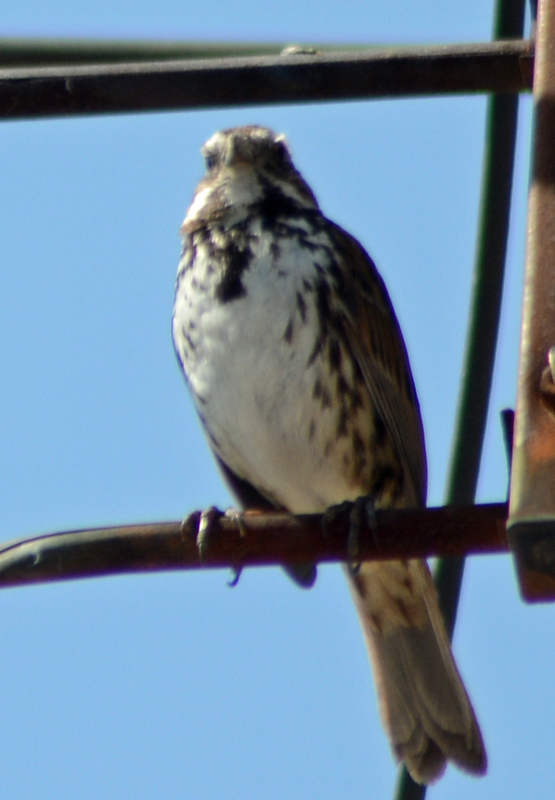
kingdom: Animalia
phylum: Chordata
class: Aves
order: Passeriformes
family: Passerellidae
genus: Melospiza
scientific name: Melospiza melodia
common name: Song sparrow
